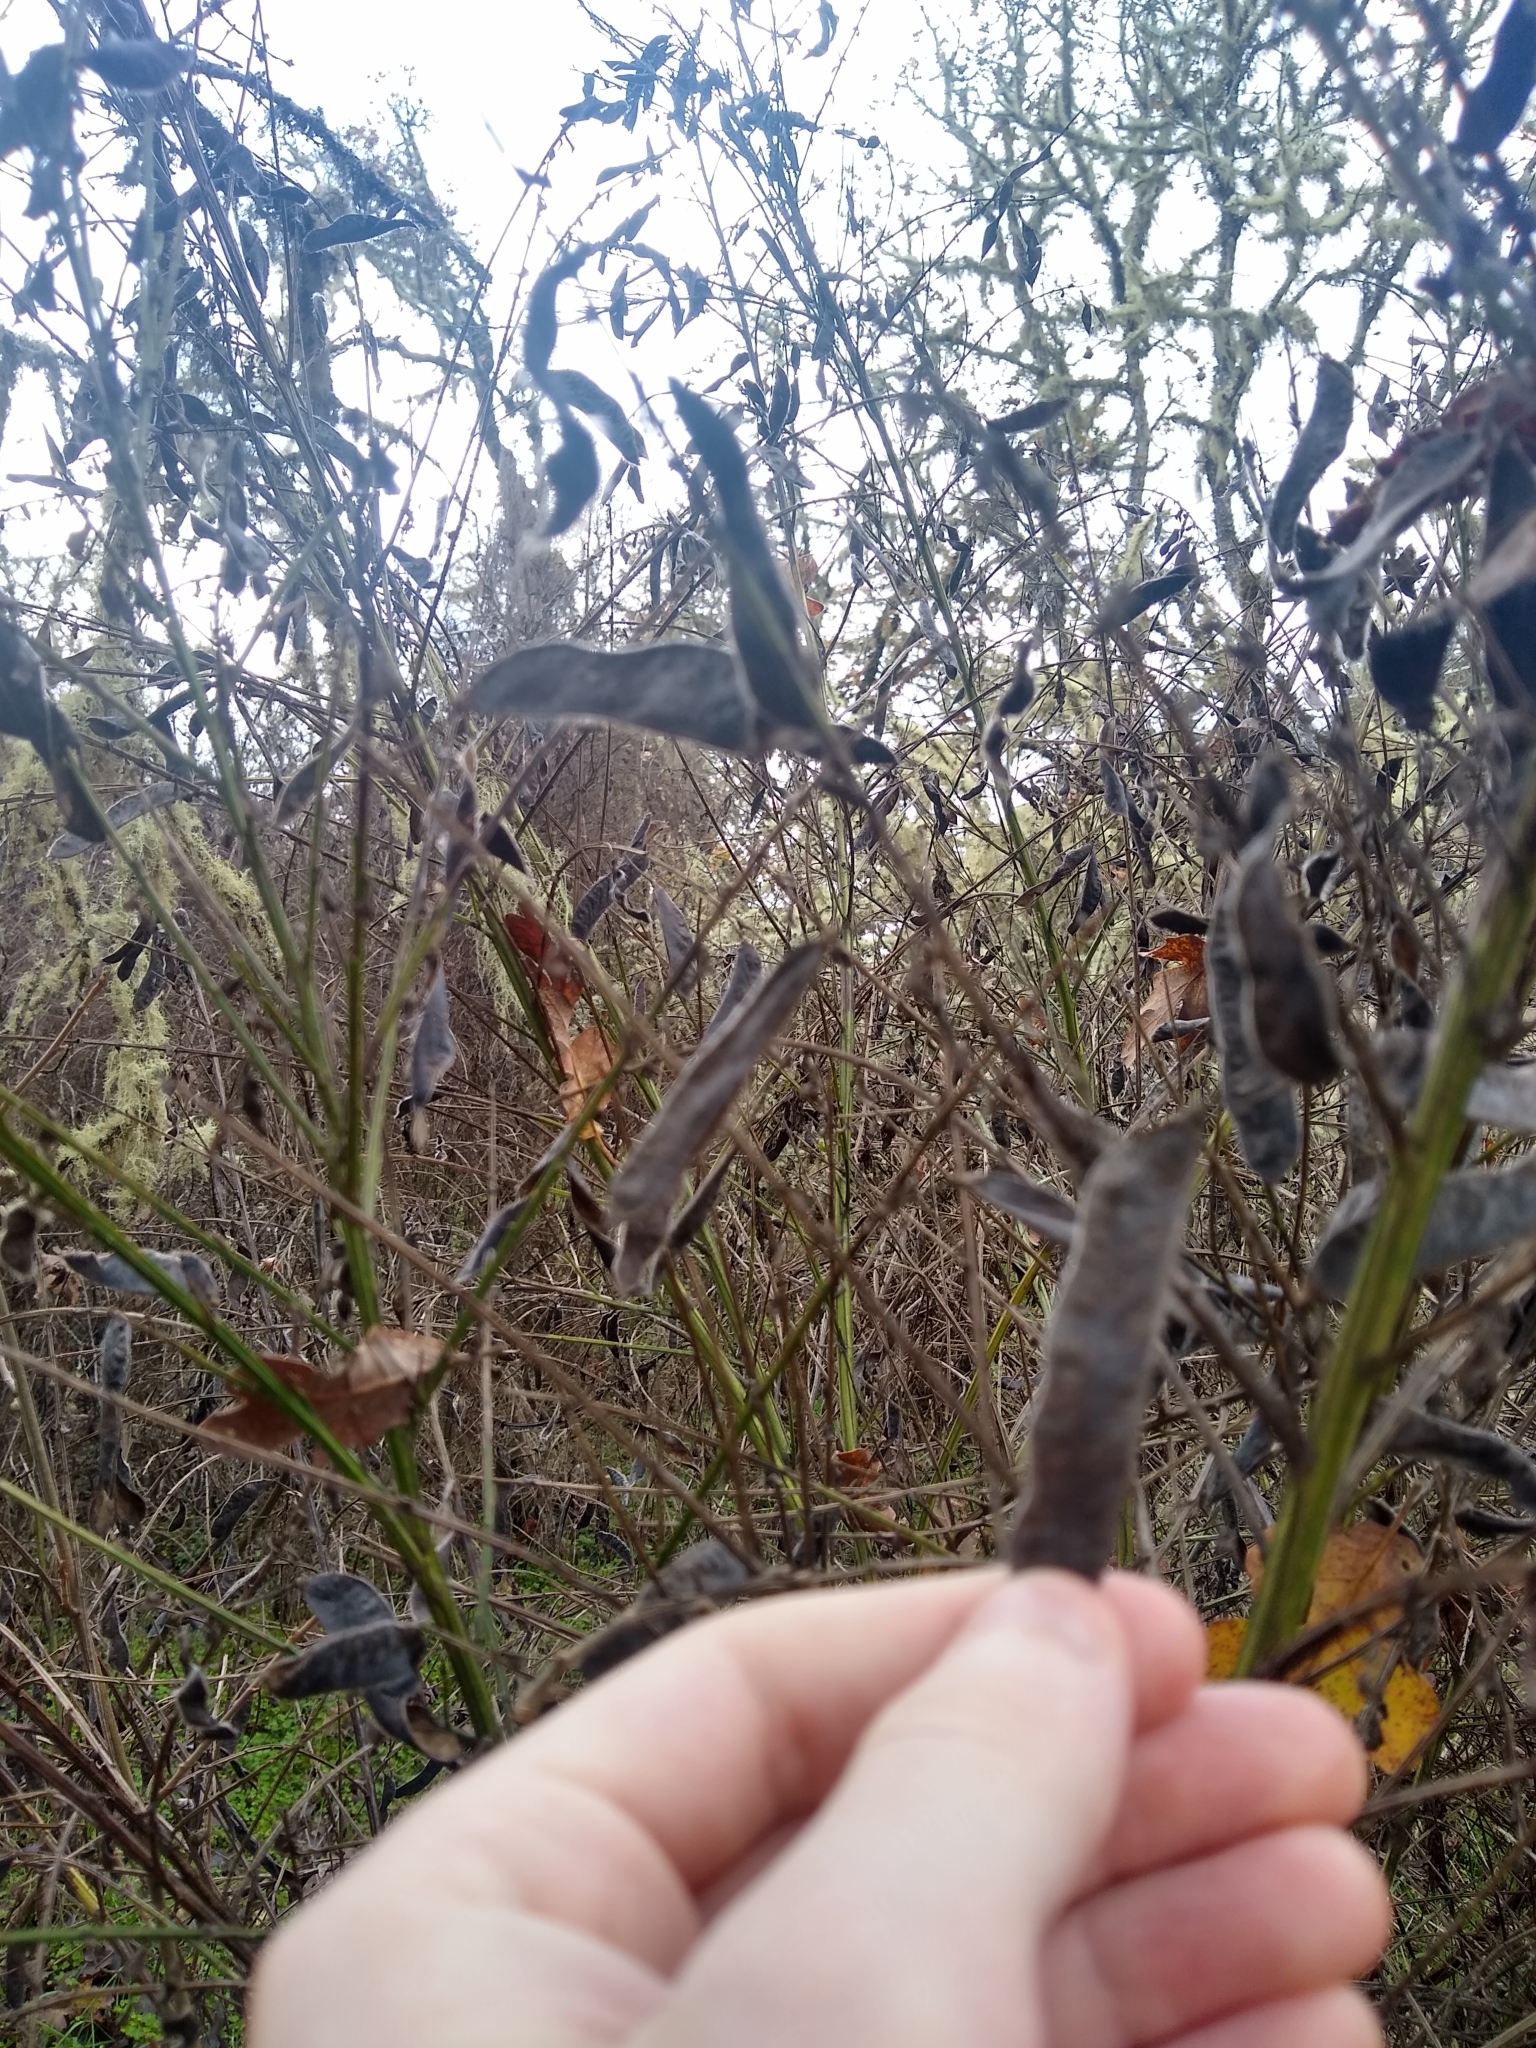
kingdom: Plantae
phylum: Tracheophyta
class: Magnoliopsida
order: Fabales
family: Fabaceae
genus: Cytisus
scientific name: Cytisus scoparius
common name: Scotch broom
